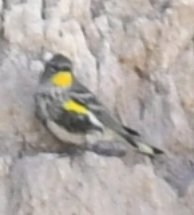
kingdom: Animalia
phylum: Chordata
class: Aves
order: Passeriformes
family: Parulidae
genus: Setophaga
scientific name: Setophaga coronata
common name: Myrtle warbler
